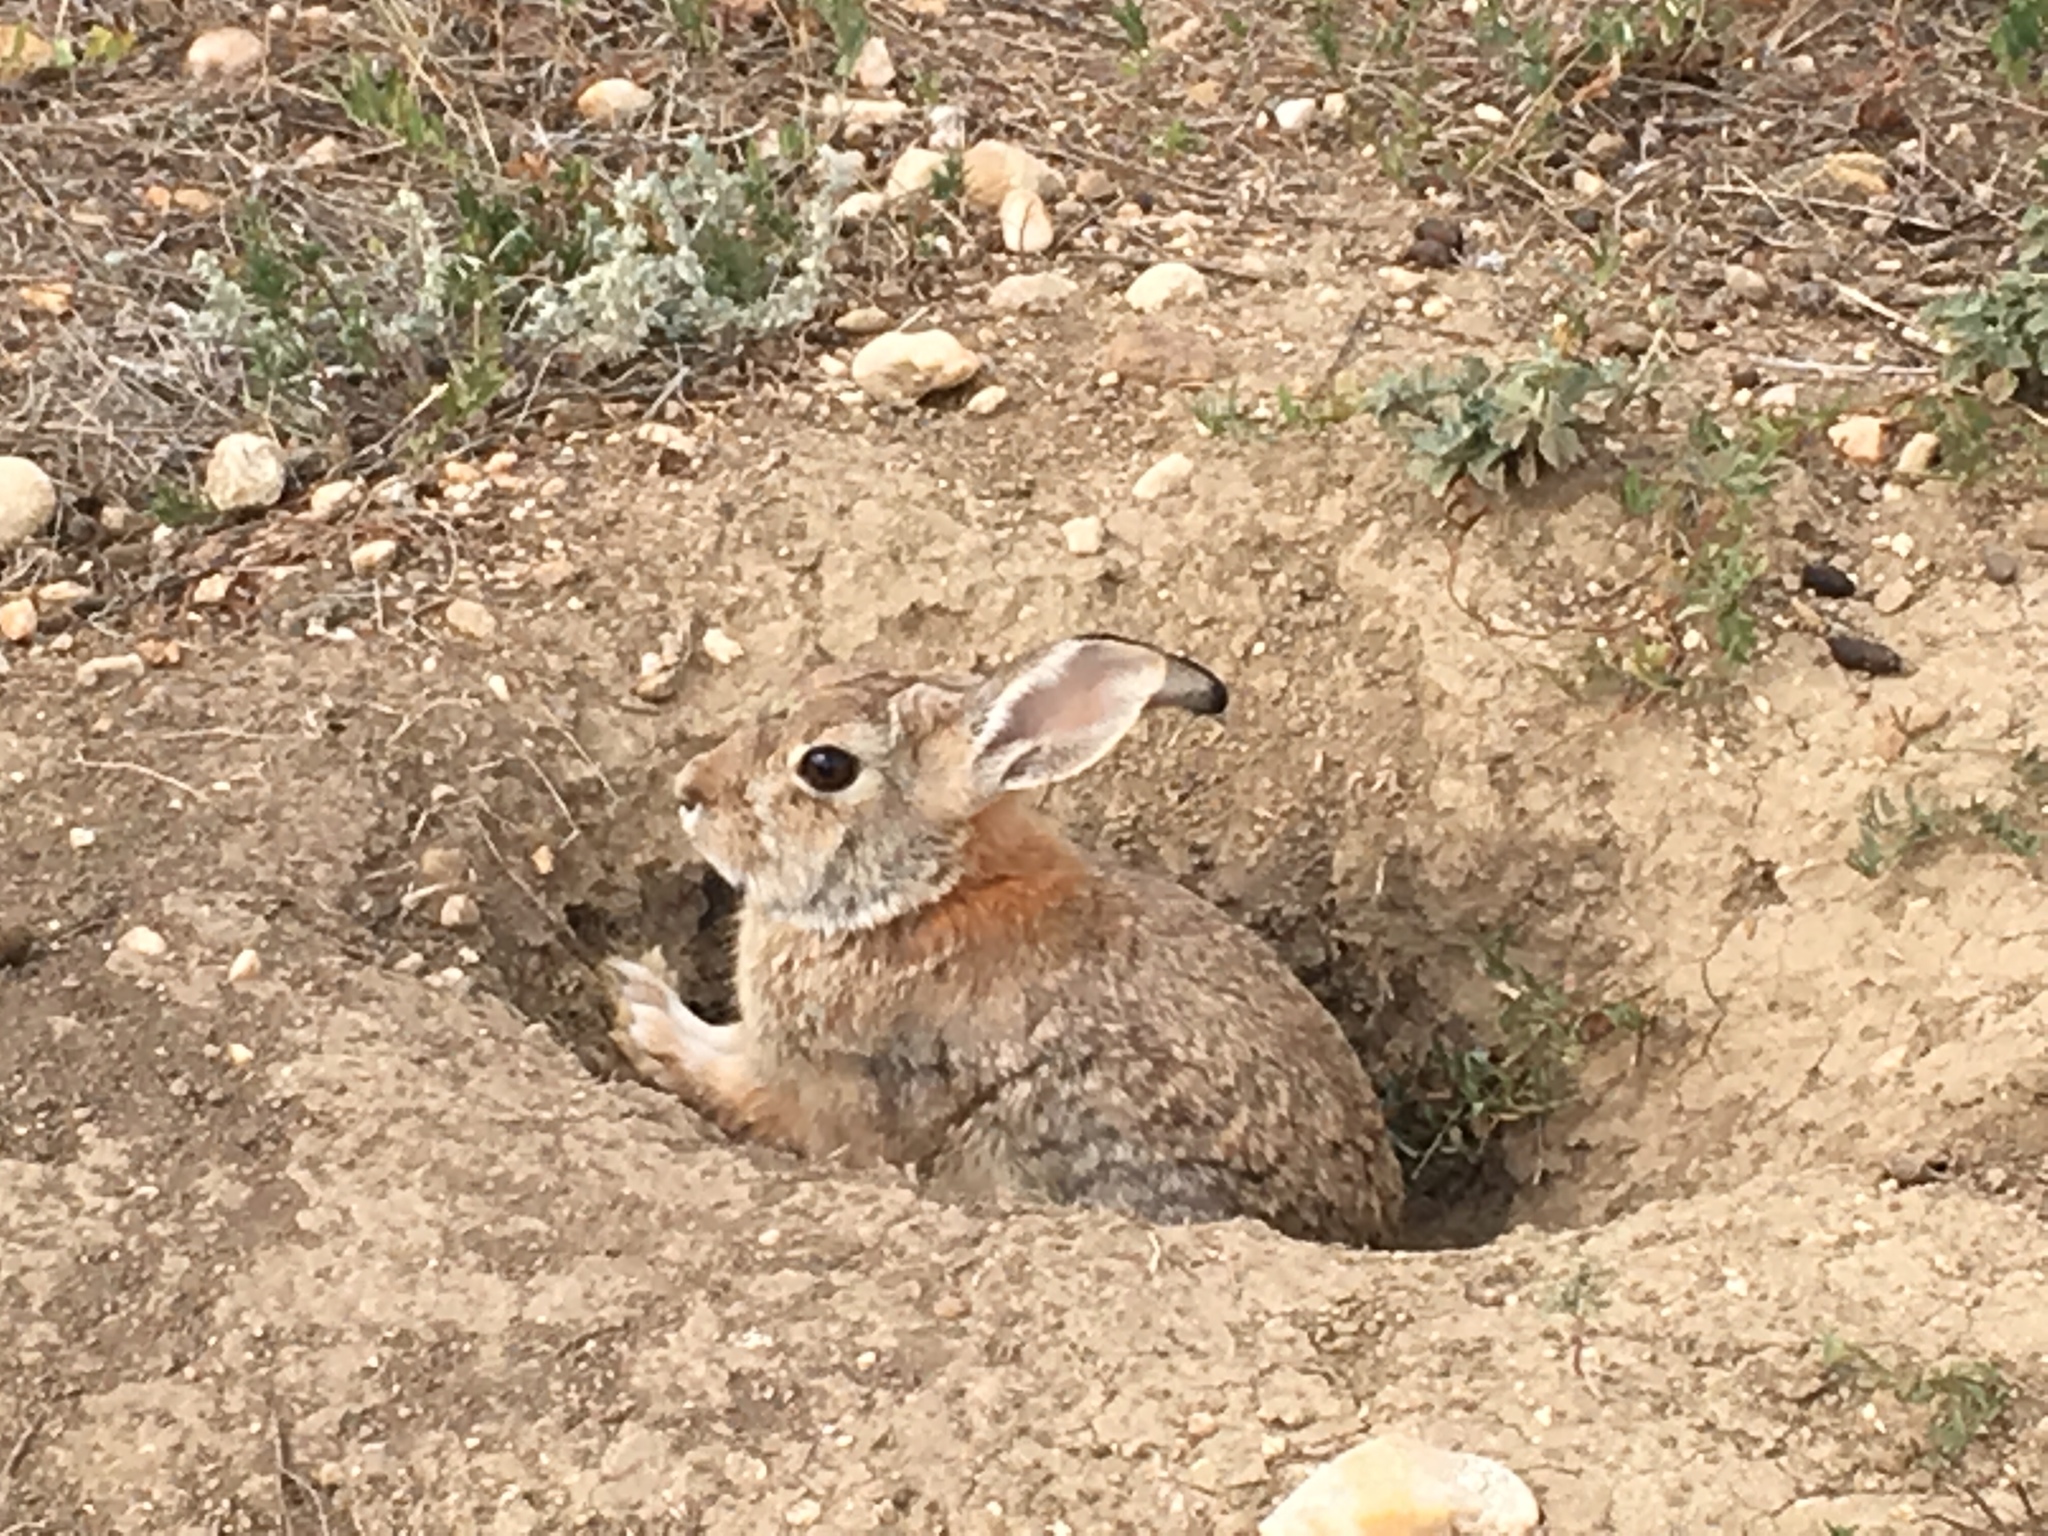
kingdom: Animalia
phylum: Chordata
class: Mammalia
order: Lagomorpha
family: Leporidae
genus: Sylvilagus
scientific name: Sylvilagus audubonii
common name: Desert cottontail
